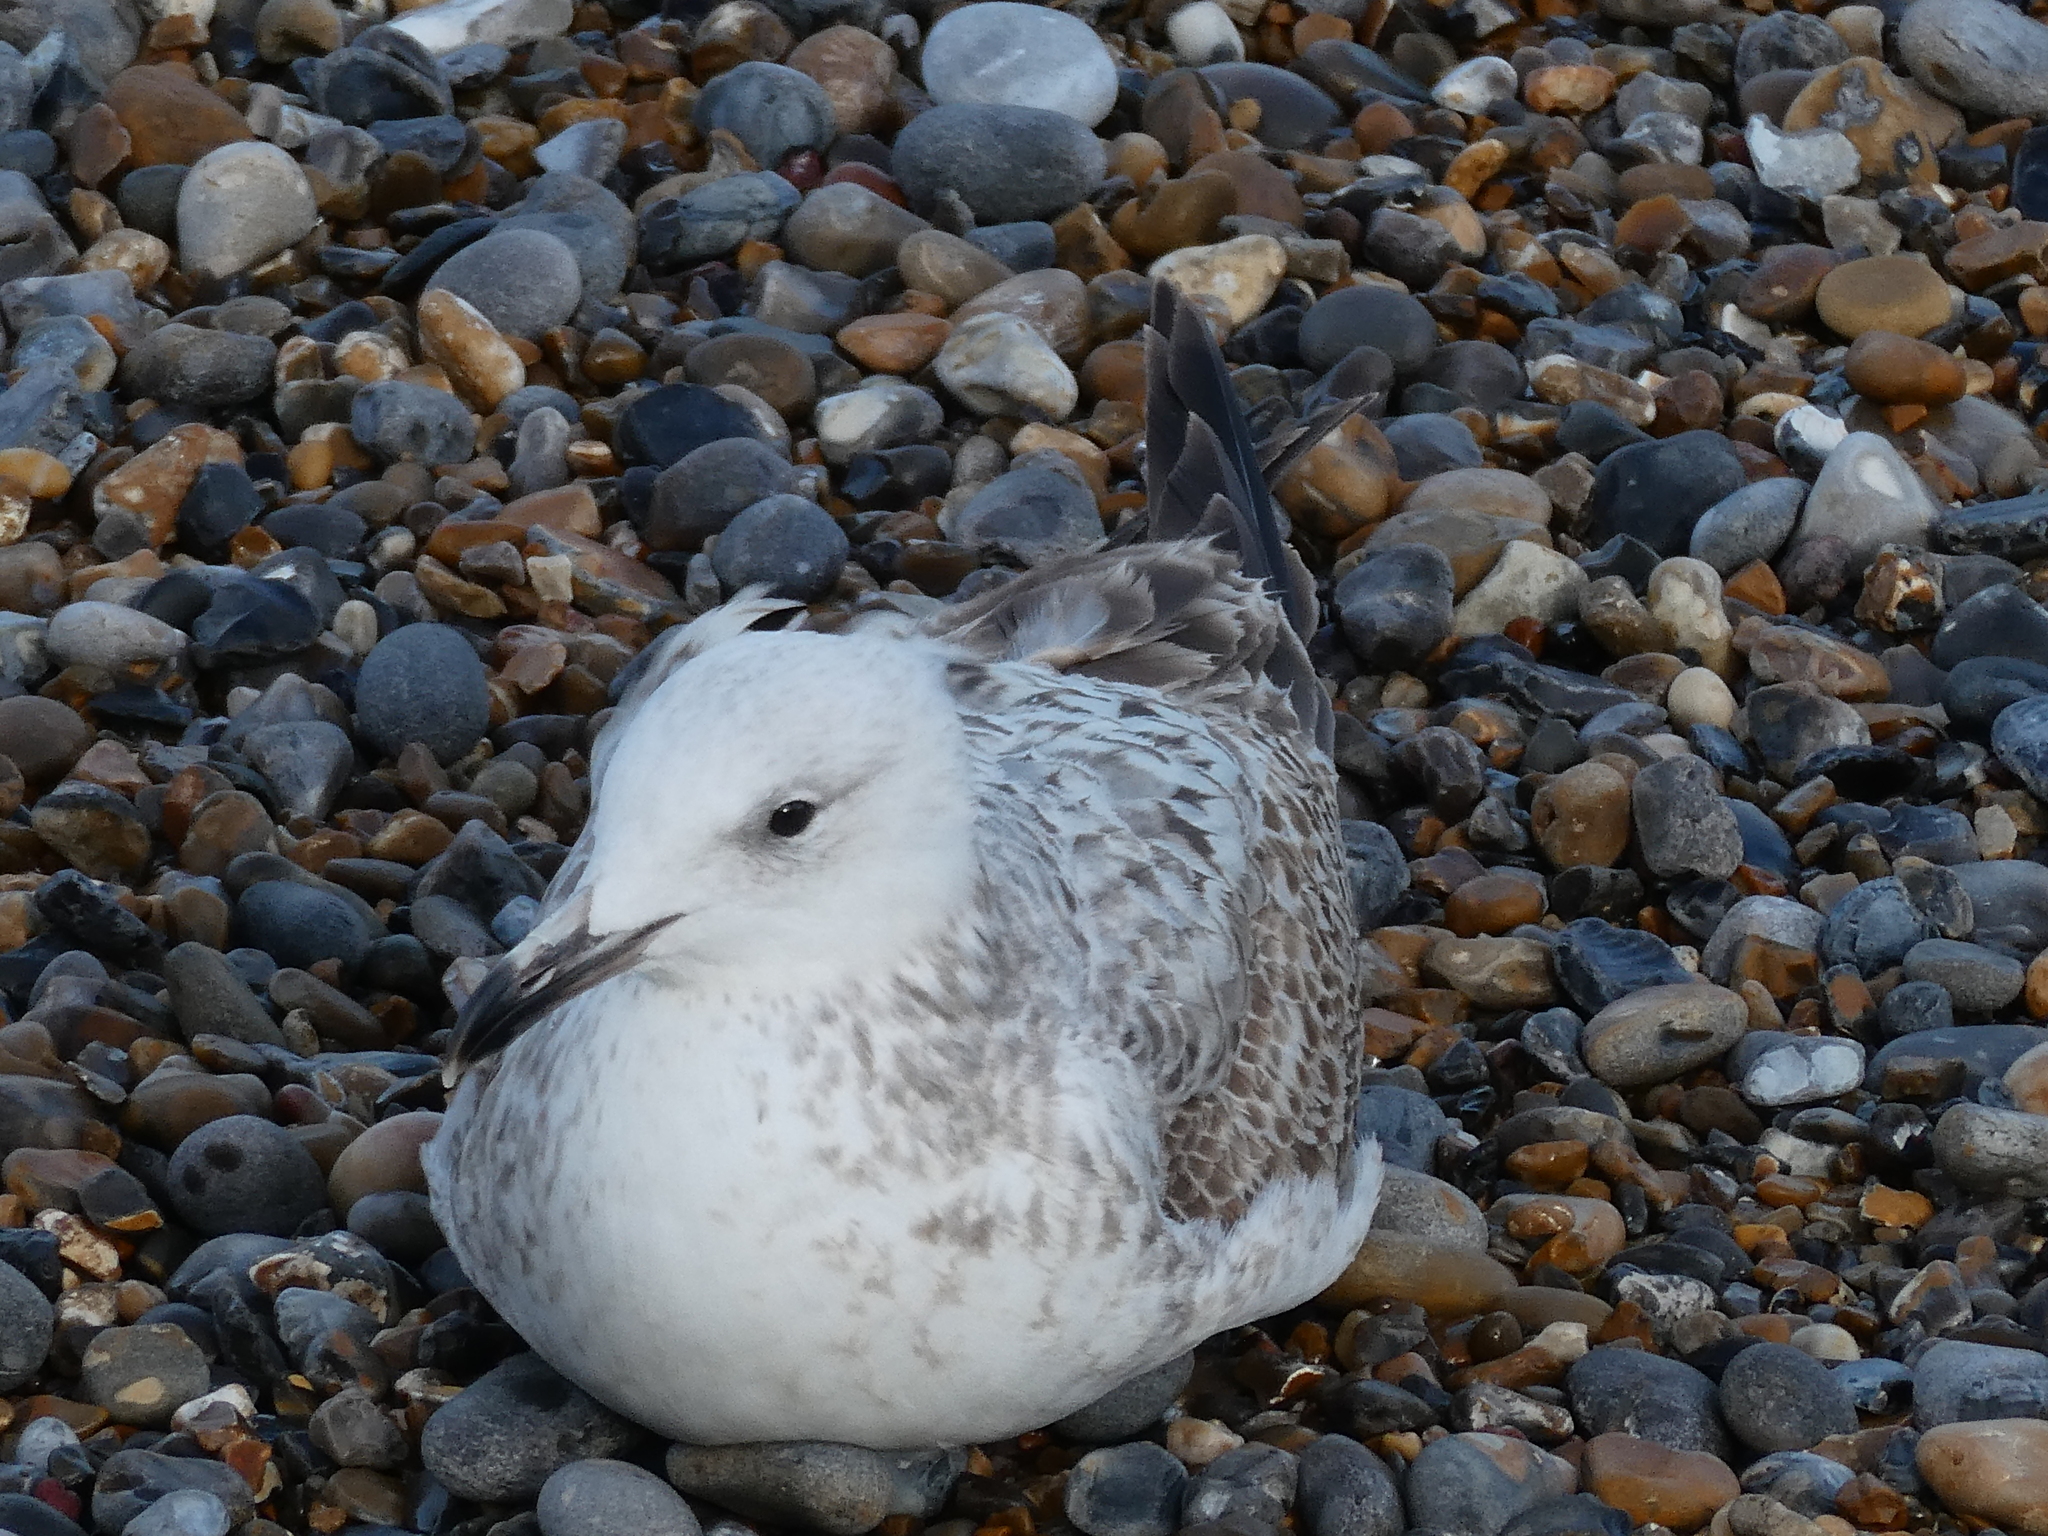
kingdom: Animalia
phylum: Chordata
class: Aves
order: Charadriiformes
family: Laridae
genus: Larus
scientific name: Larus cachinnans
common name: Caspian gull
